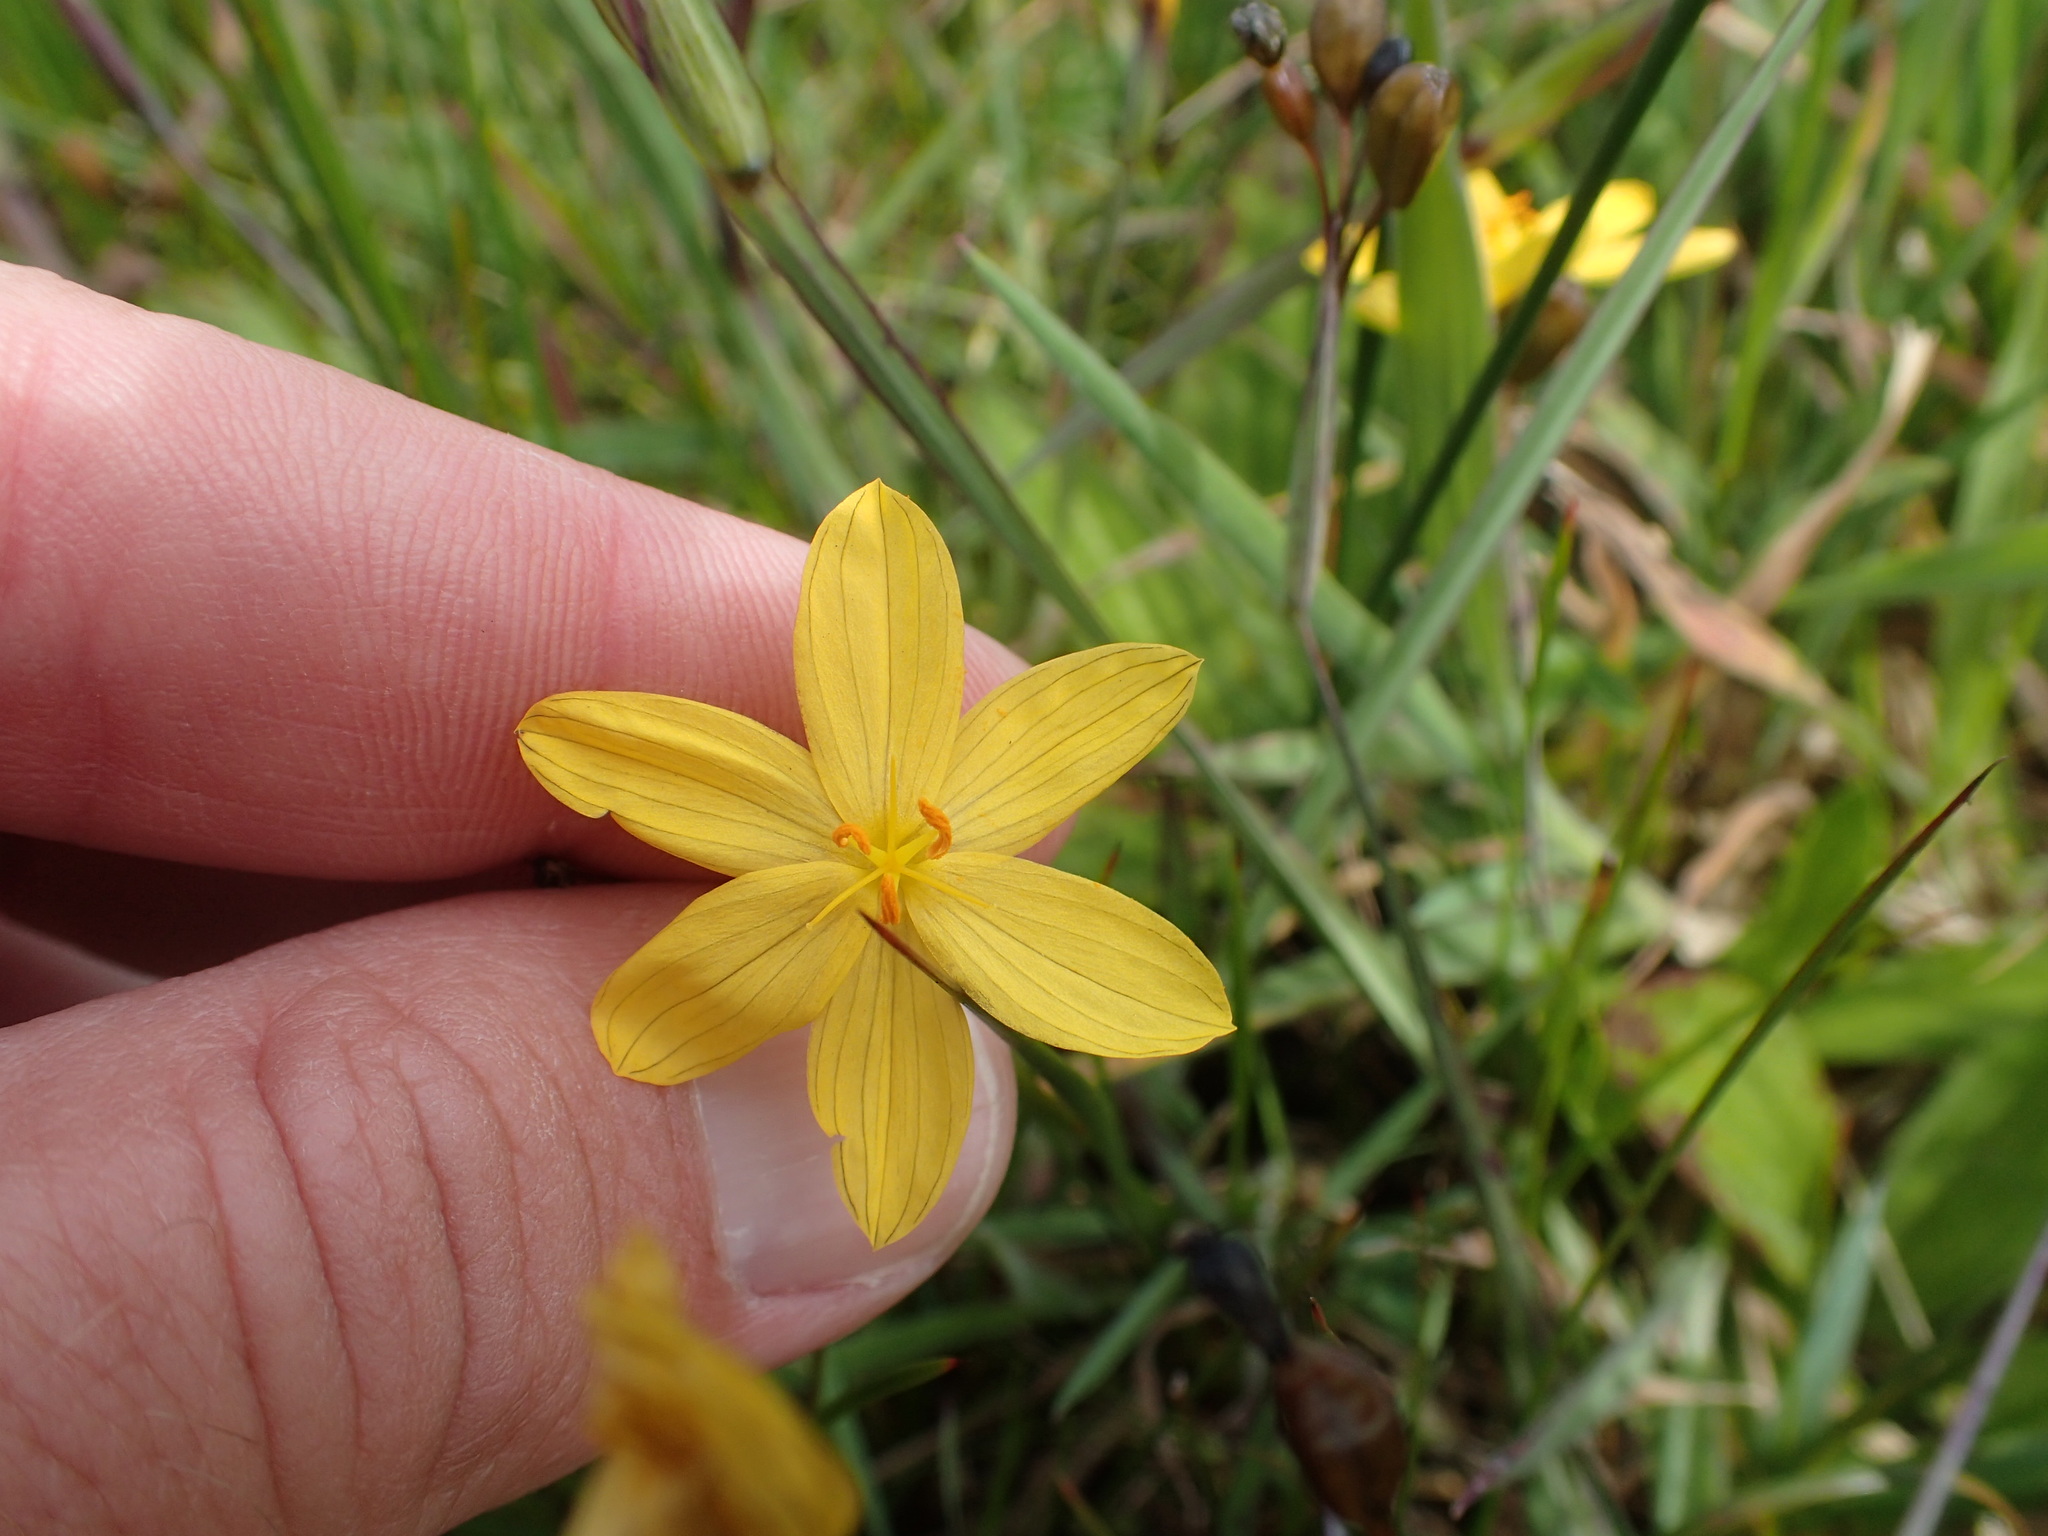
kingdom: Plantae
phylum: Tracheophyta
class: Liliopsida
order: Asparagales
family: Iridaceae
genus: Sisyrinchium
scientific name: Sisyrinchium californicum
